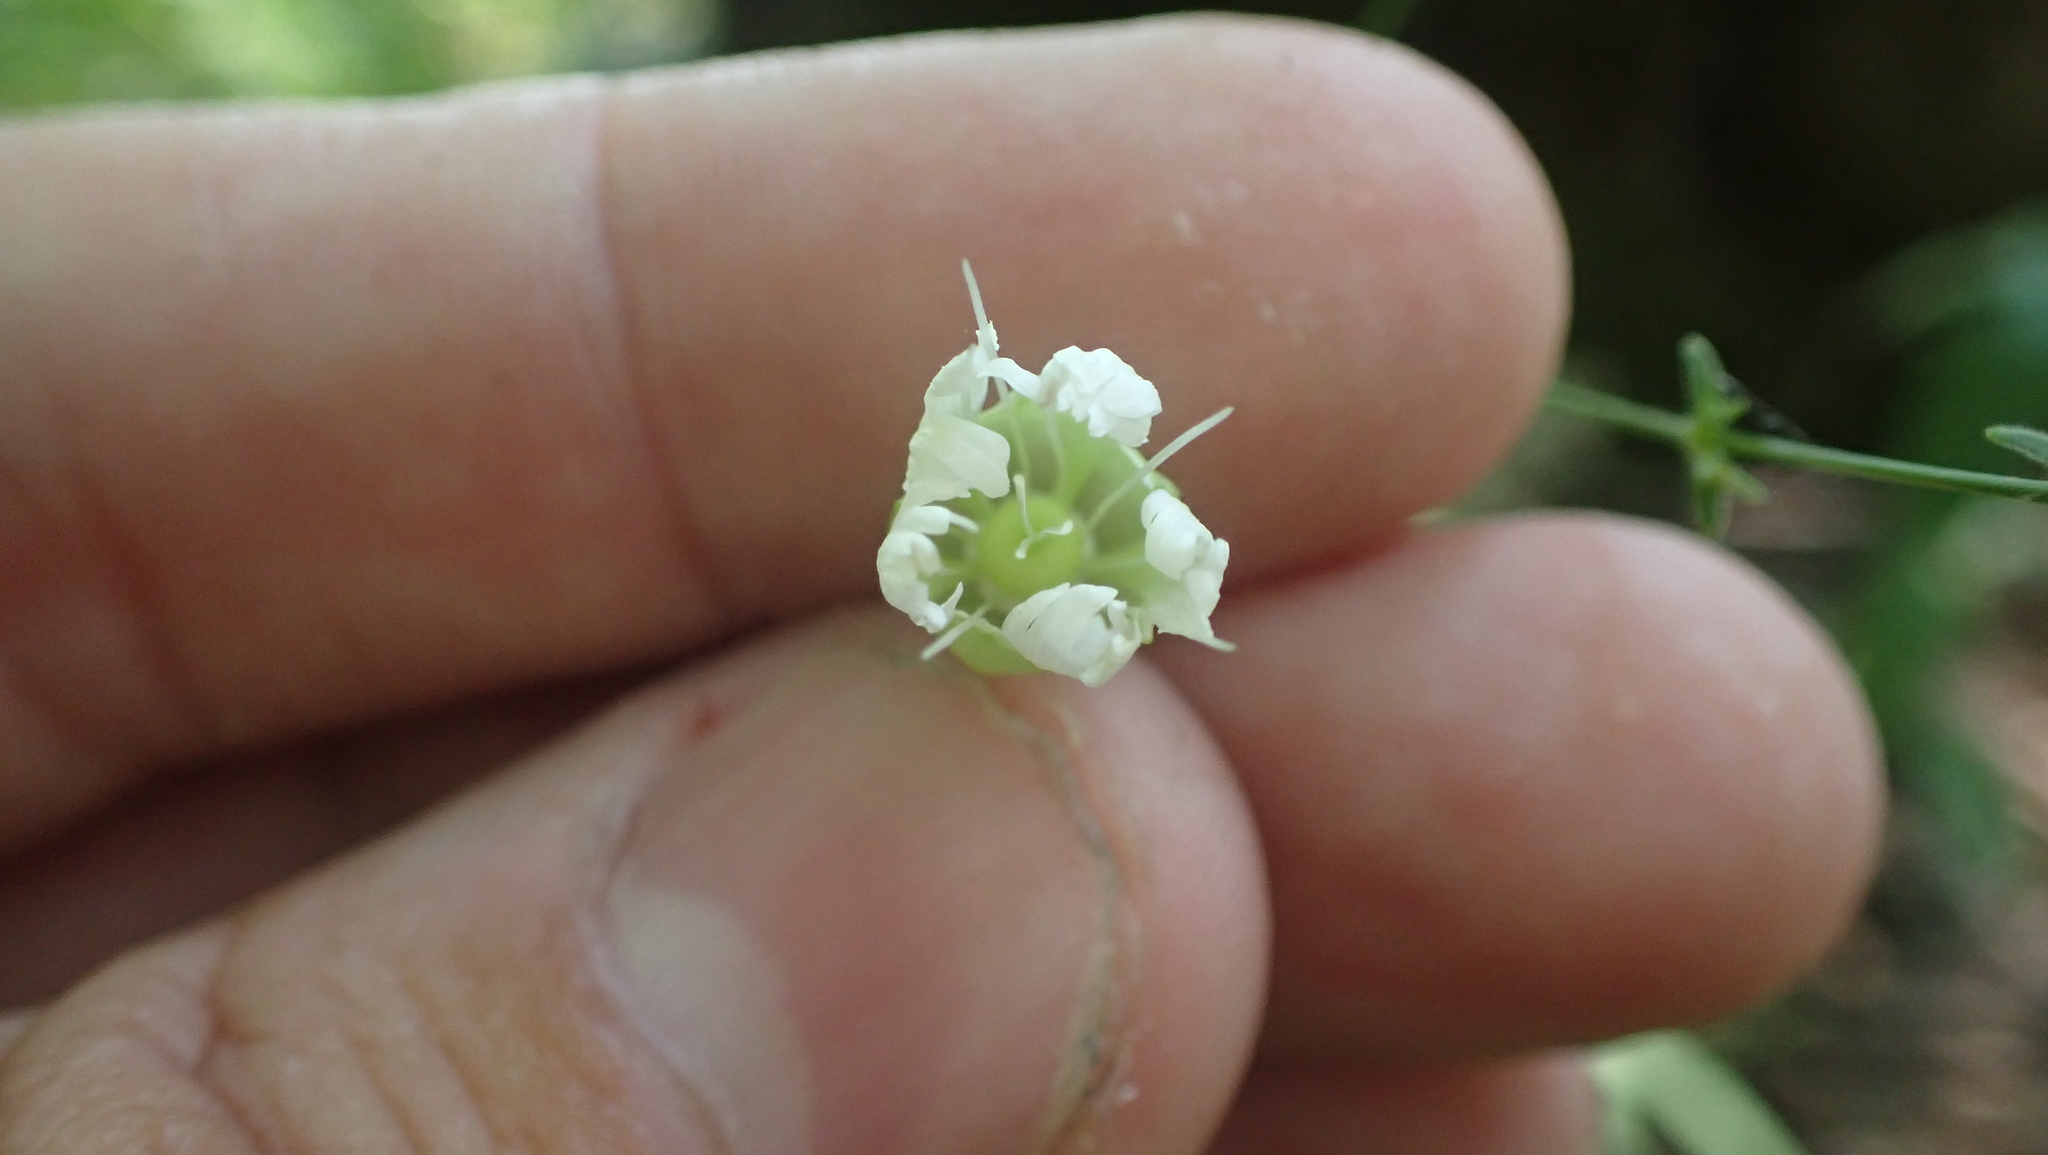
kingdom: Plantae
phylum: Tracheophyta
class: Magnoliopsida
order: Caryophyllales
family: Caryophyllaceae
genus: Silene
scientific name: Silene stellata
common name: Starry campion
